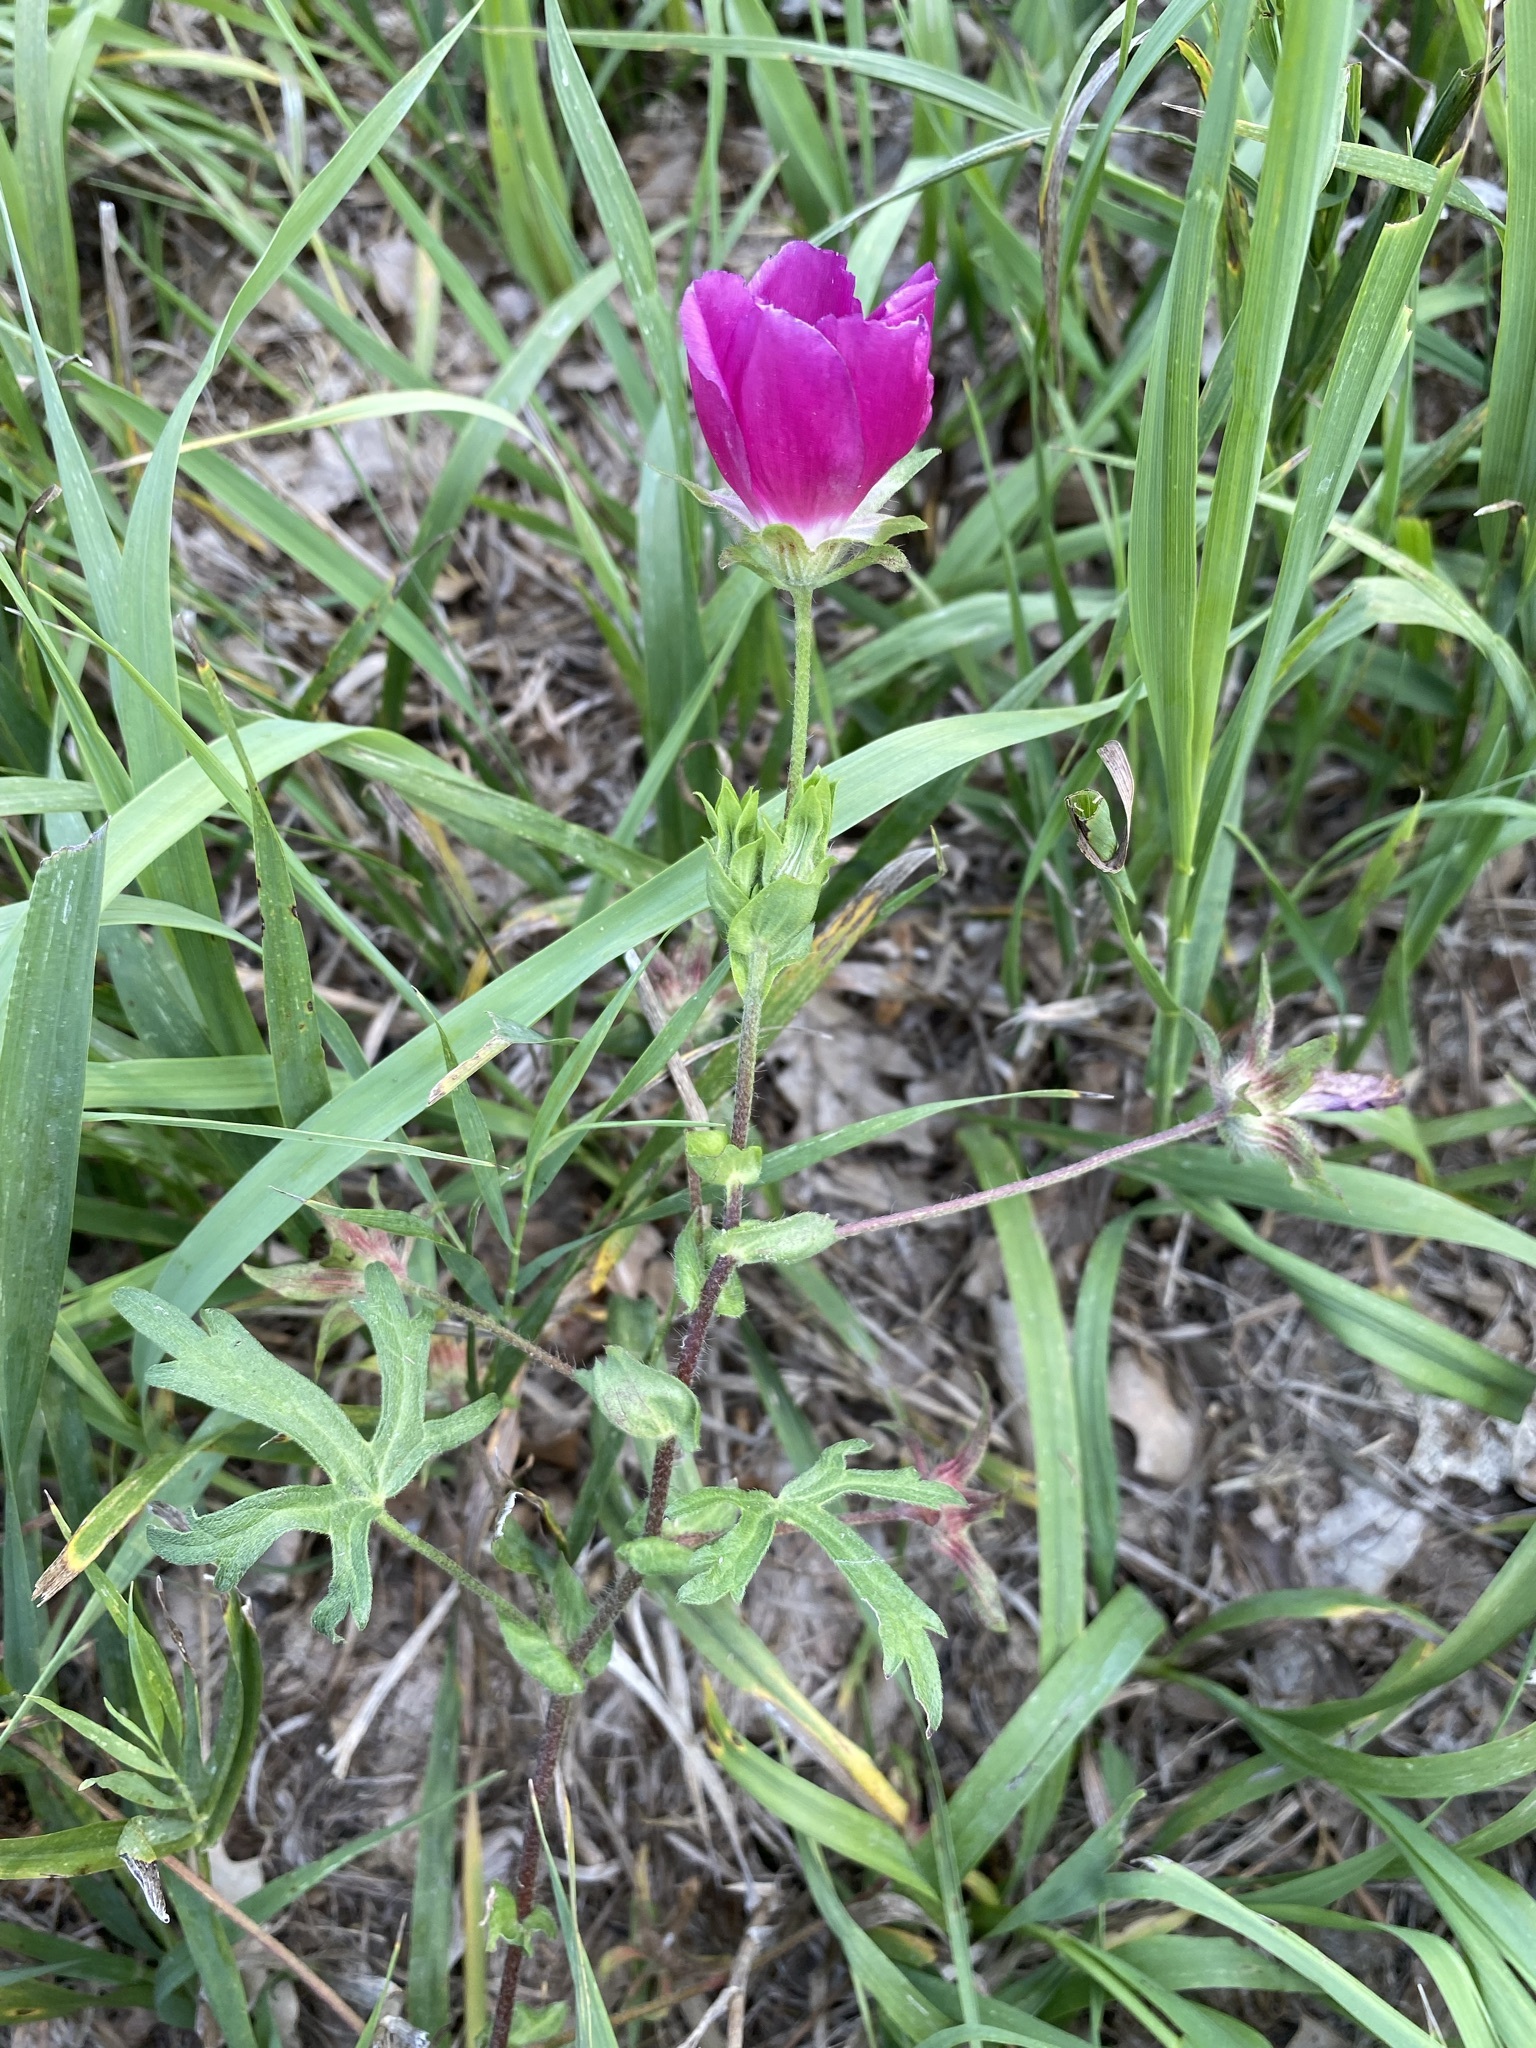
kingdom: Plantae
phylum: Tracheophyta
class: Magnoliopsida
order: Malvales
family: Malvaceae
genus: Callirhoe
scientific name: Callirhoe involucrata
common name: Purple poppy-mallow
